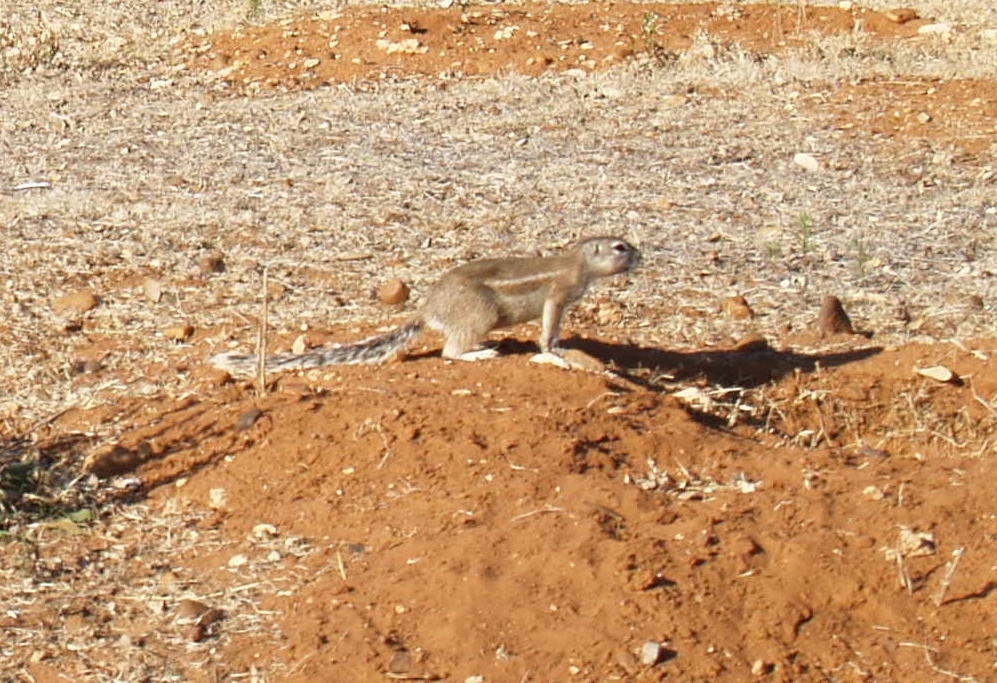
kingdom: Animalia
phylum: Chordata
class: Mammalia
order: Rodentia
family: Sciuridae
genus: Xerus
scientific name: Xerus inauris
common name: South african ground squirrel
